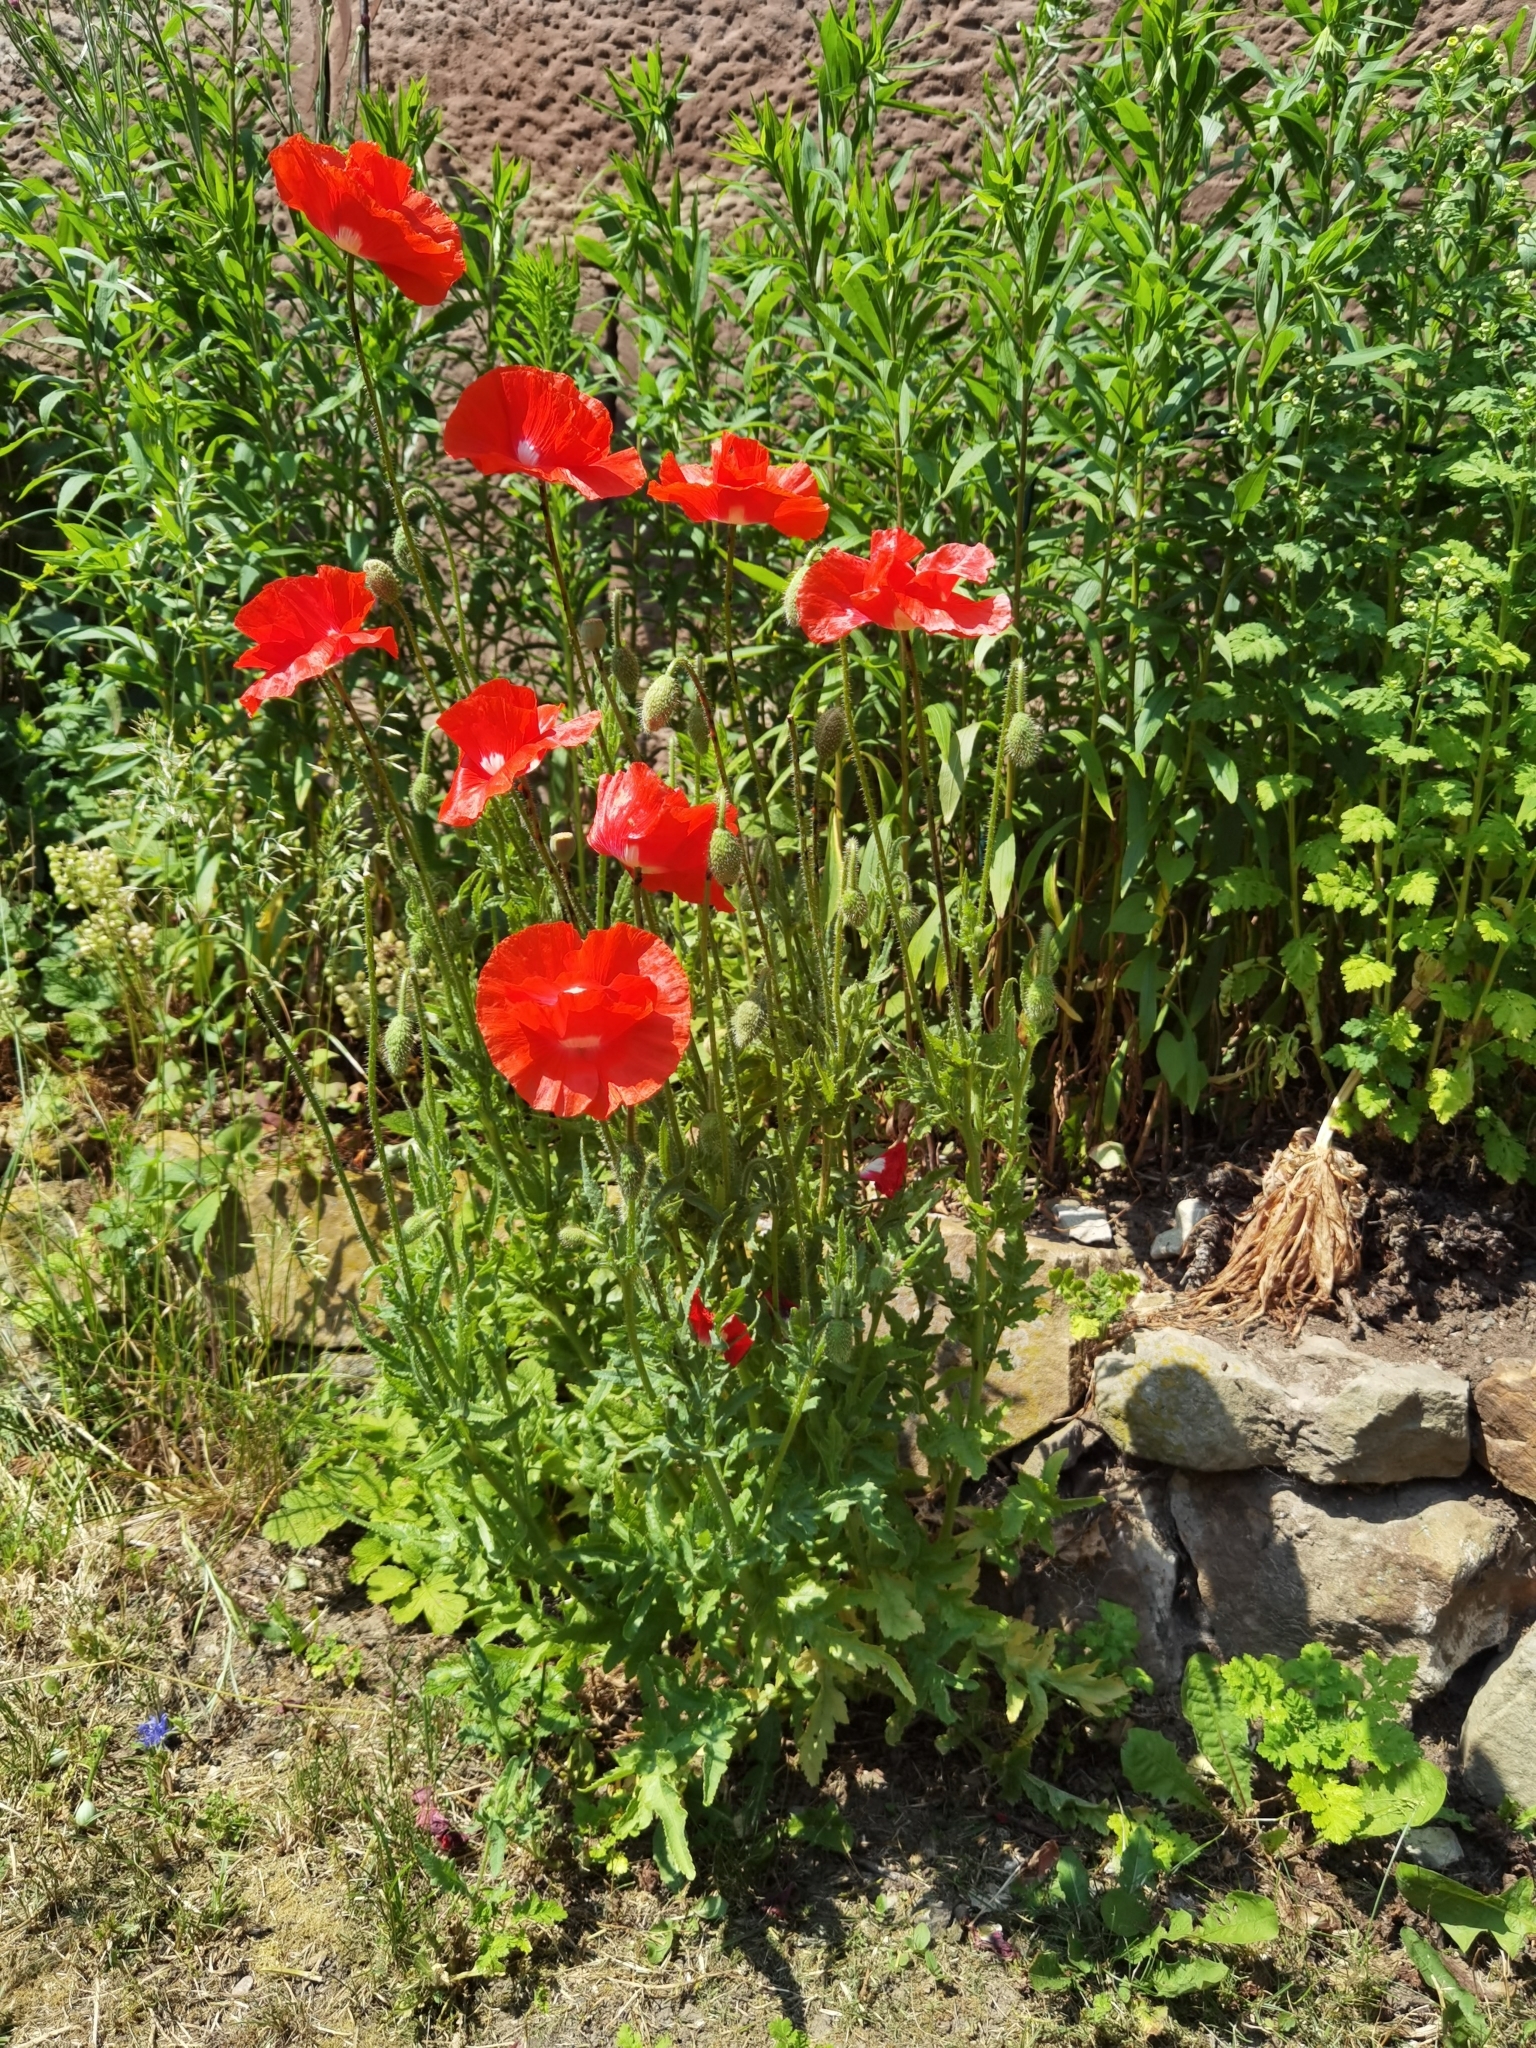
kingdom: Plantae
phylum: Tracheophyta
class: Magnoliopsida
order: Ranunculales
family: Papaveraceae
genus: Papaver
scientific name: Papaver rhoeas
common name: Corn poppy
